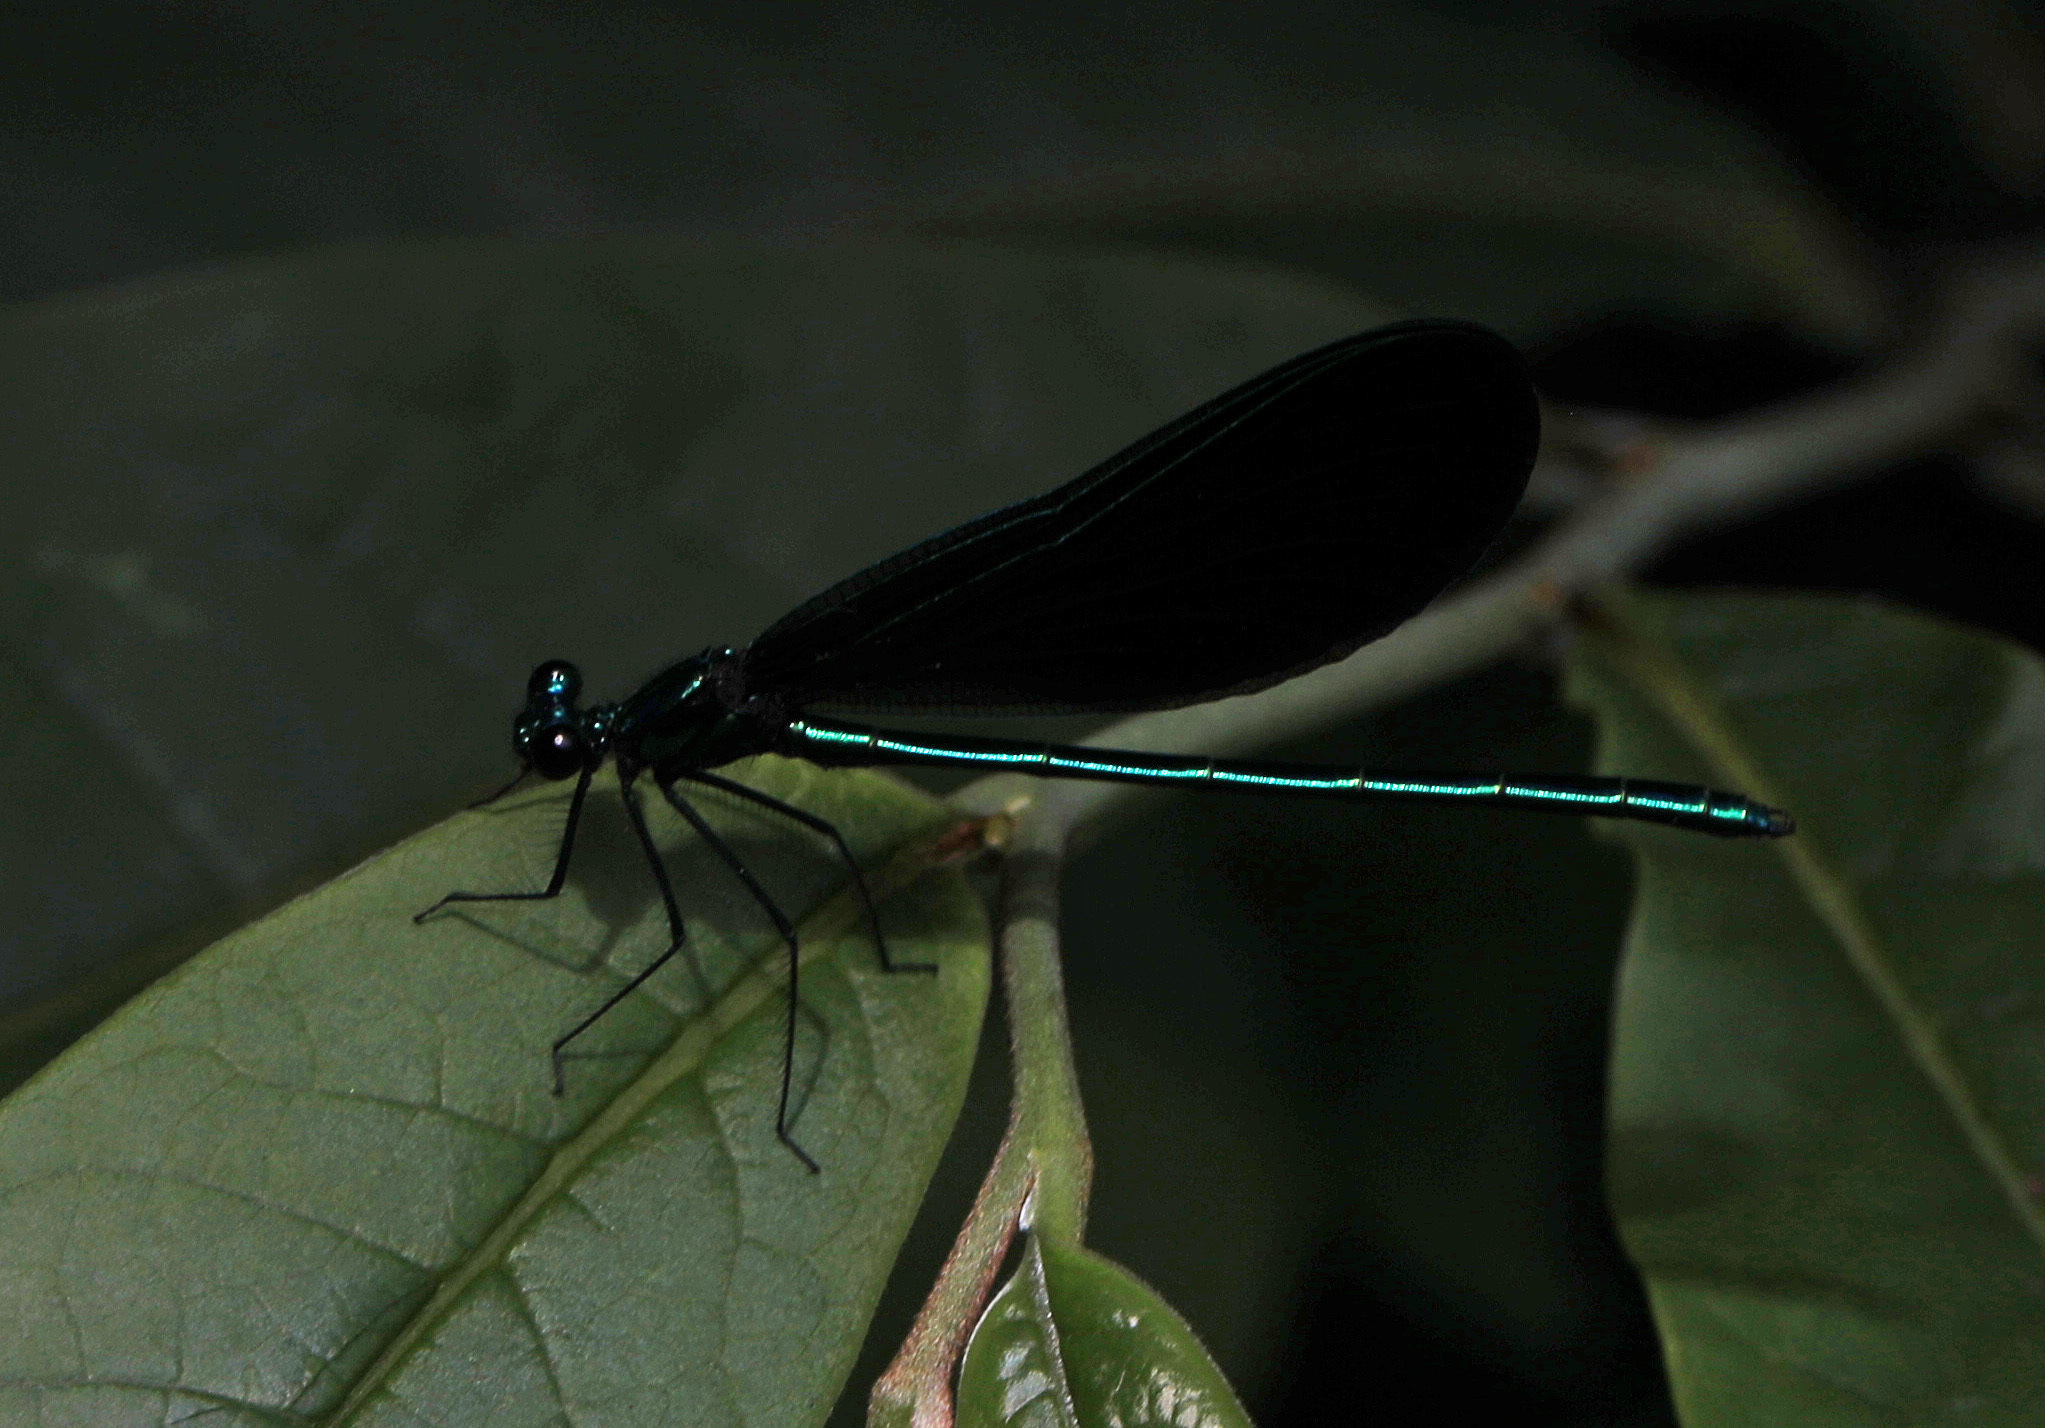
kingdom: Animalia
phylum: Arthropoda
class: Insecta
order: Odonata
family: Calopterygidae
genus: Calopteryx
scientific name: Calopteryx maculata
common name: Ebony jewelwing
